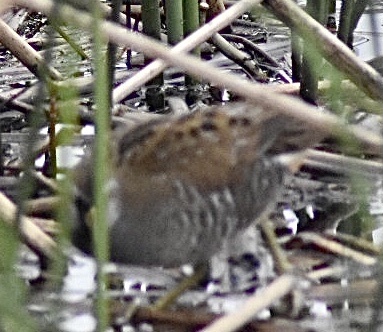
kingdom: Animalia
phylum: Chordata
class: Aves
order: Gruiformes
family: Rallidae
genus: Porzana
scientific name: Porzana carolina
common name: Sora
